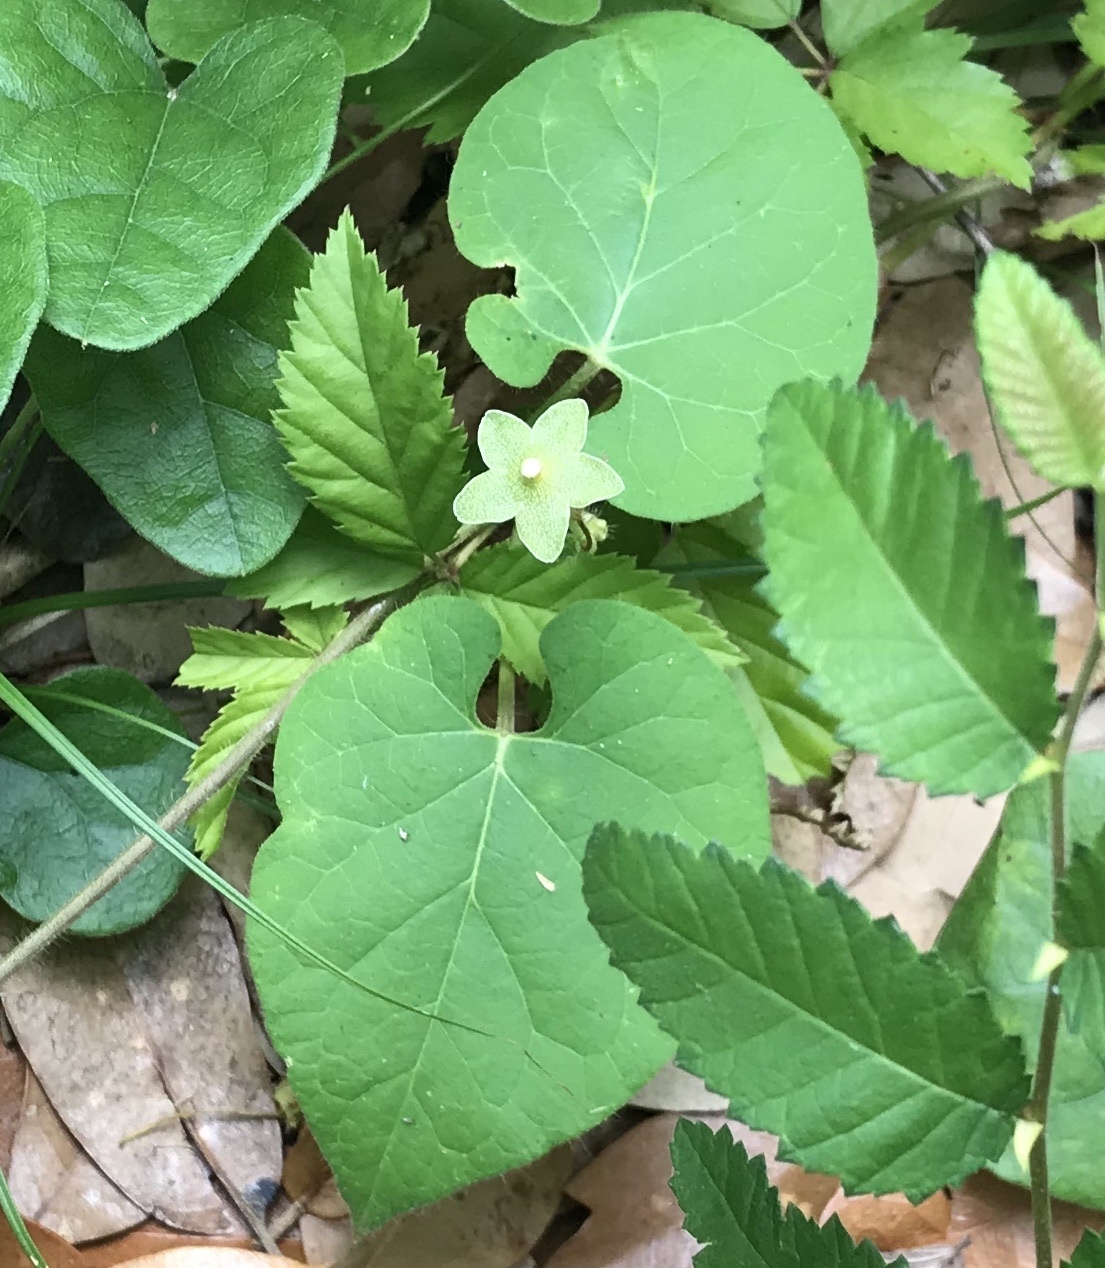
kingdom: Plantae
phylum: Tracheophyta
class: Magnoliopsida
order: Gentianales
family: Apocynaceae
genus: Dictyanthus
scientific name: Dictyanthus reticulatus
